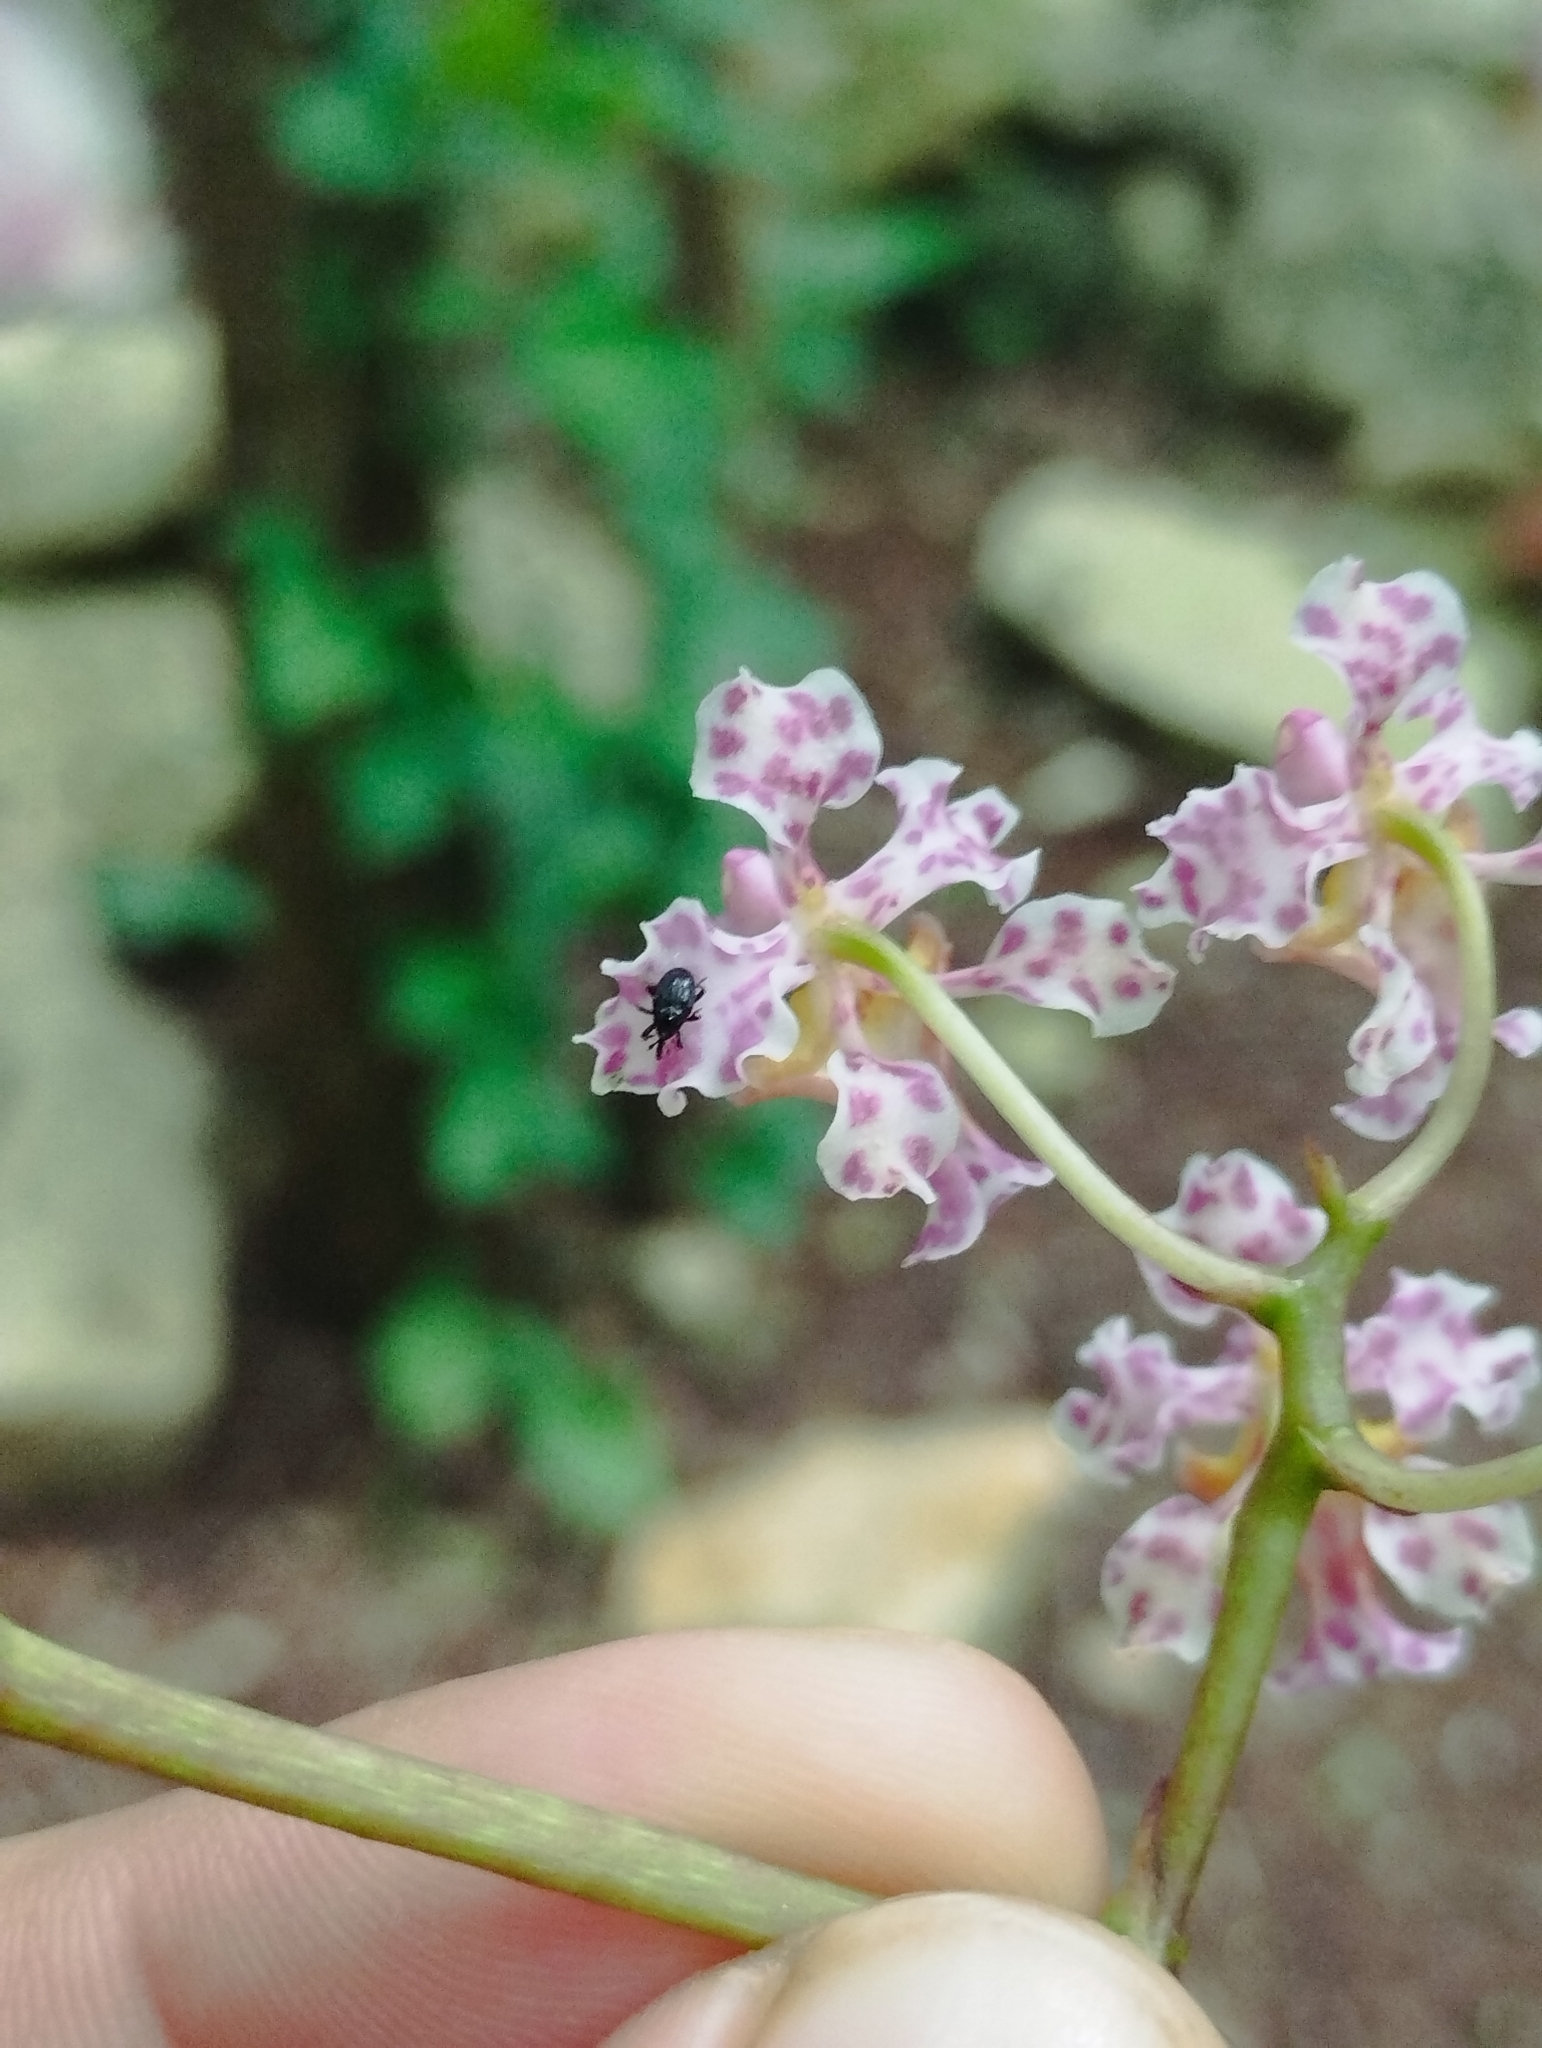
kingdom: Plantae
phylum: Tracheophyta
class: Liliopsida
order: Asparagales
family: Orchidaceae
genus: Trichocentrum
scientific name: Trichocentrum oerstedii
